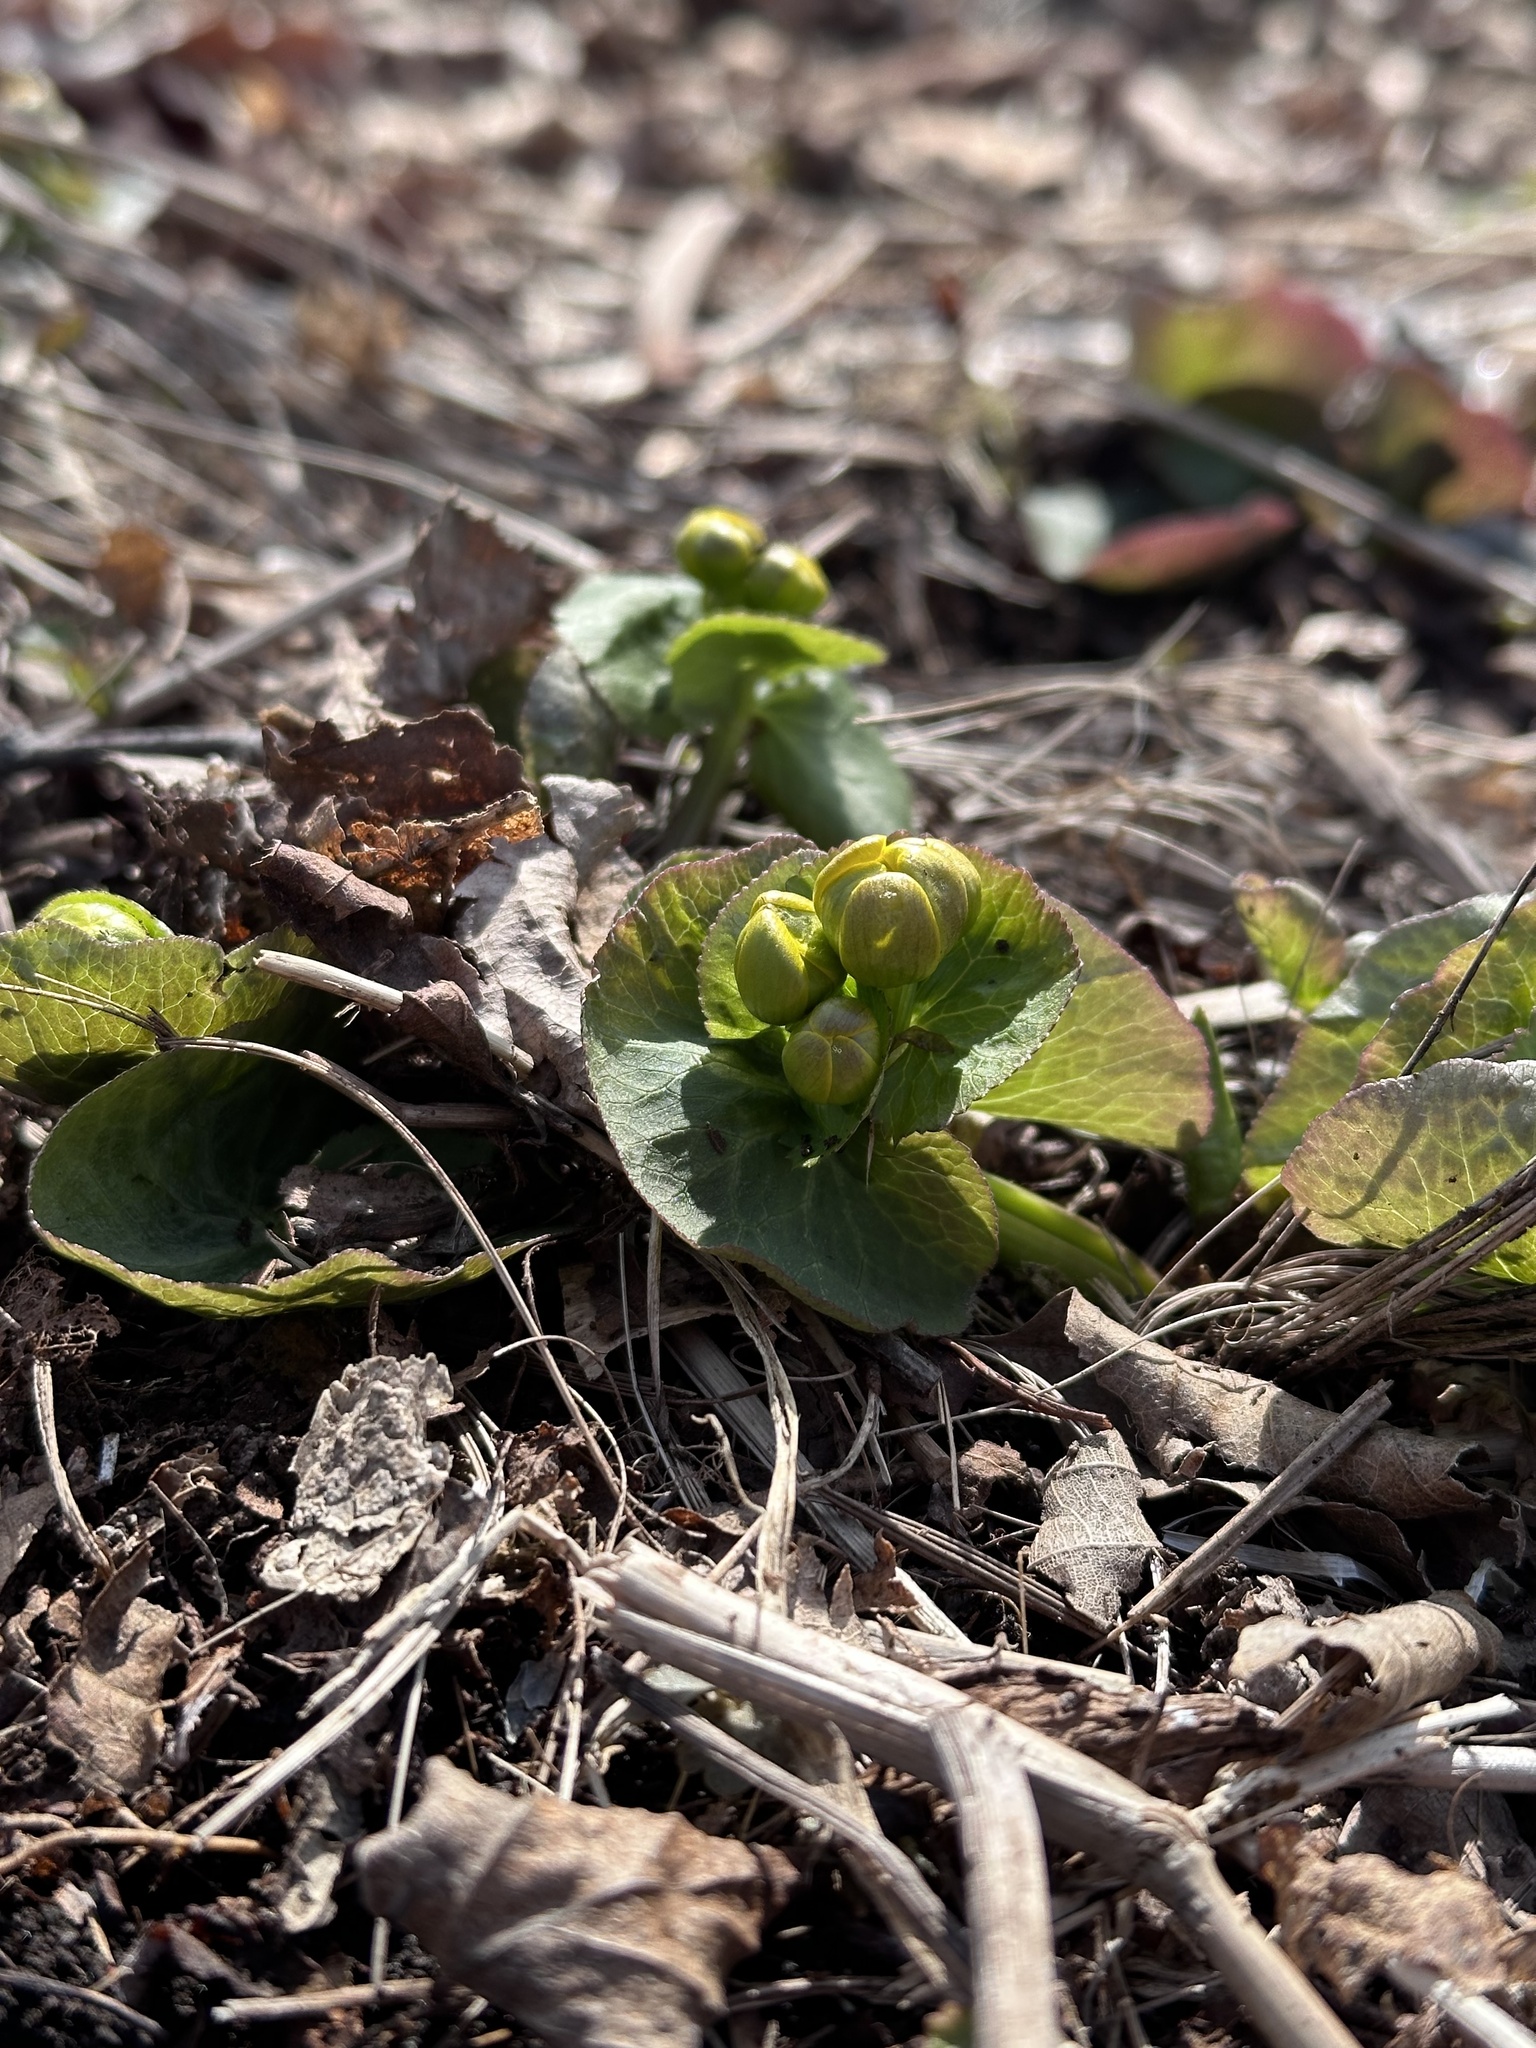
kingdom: Plantae
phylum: Tracheophyta
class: Magnoliopsida
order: Ranunculales
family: Ranunculaceae
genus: Caltha
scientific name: Caltha palustris
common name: Marsh marigold
